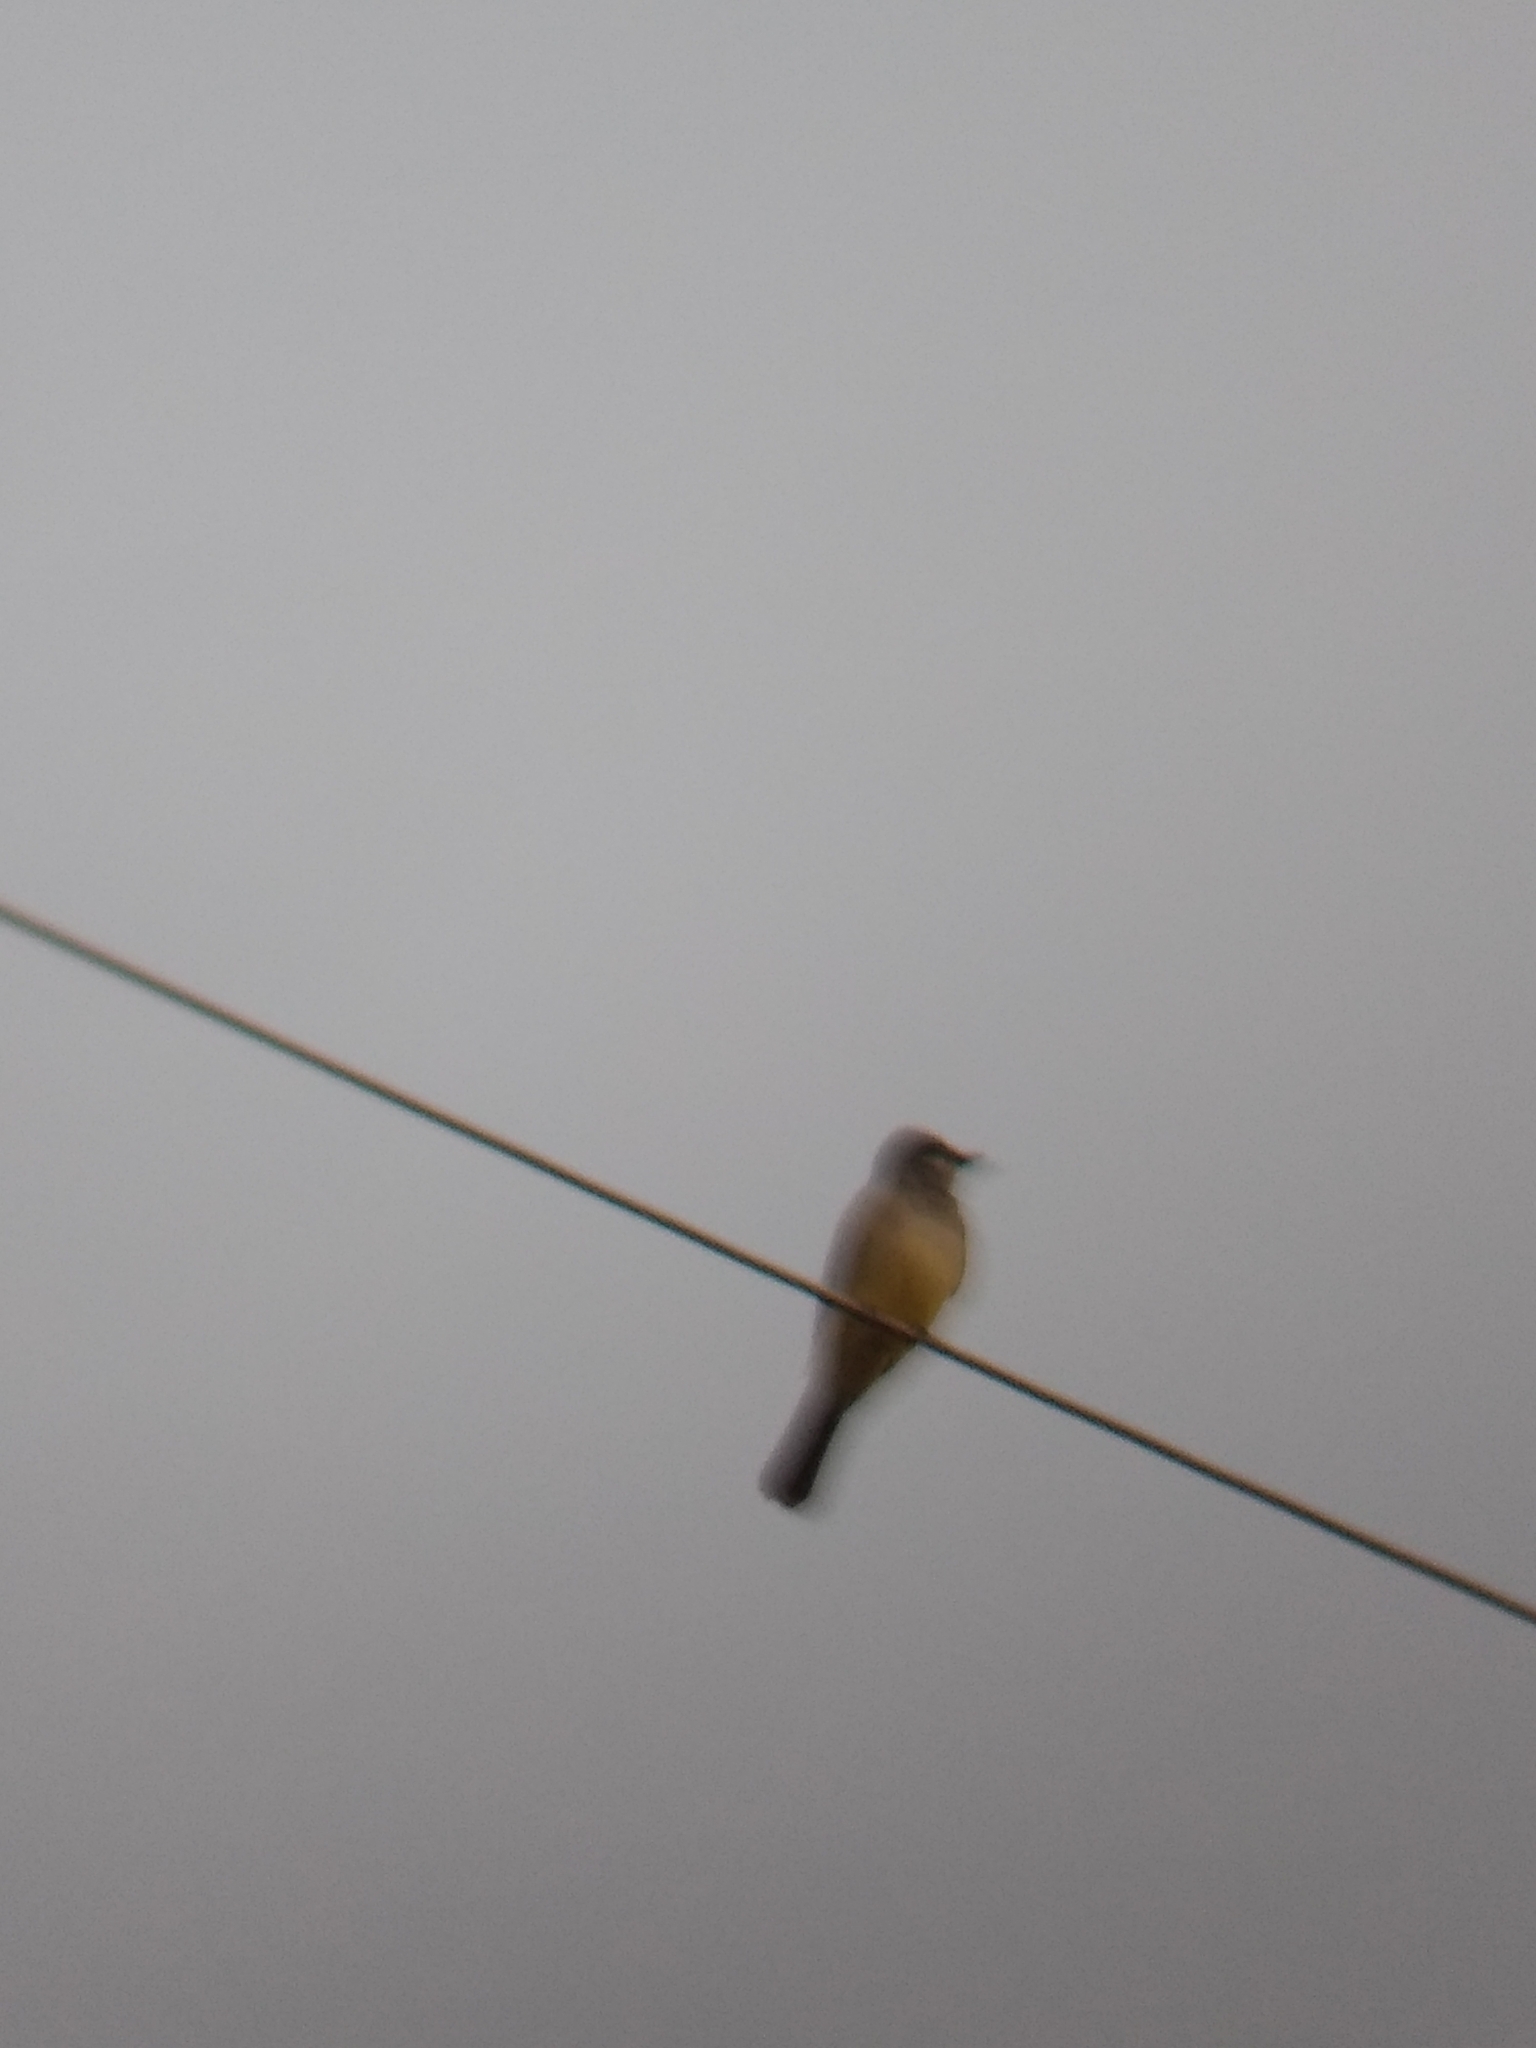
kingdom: Animalia
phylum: Chordata
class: Aves
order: Passeriformes
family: Tyrannidae
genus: Tyrannus
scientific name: Tyrannus vociferans
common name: Cassin's kingbird
